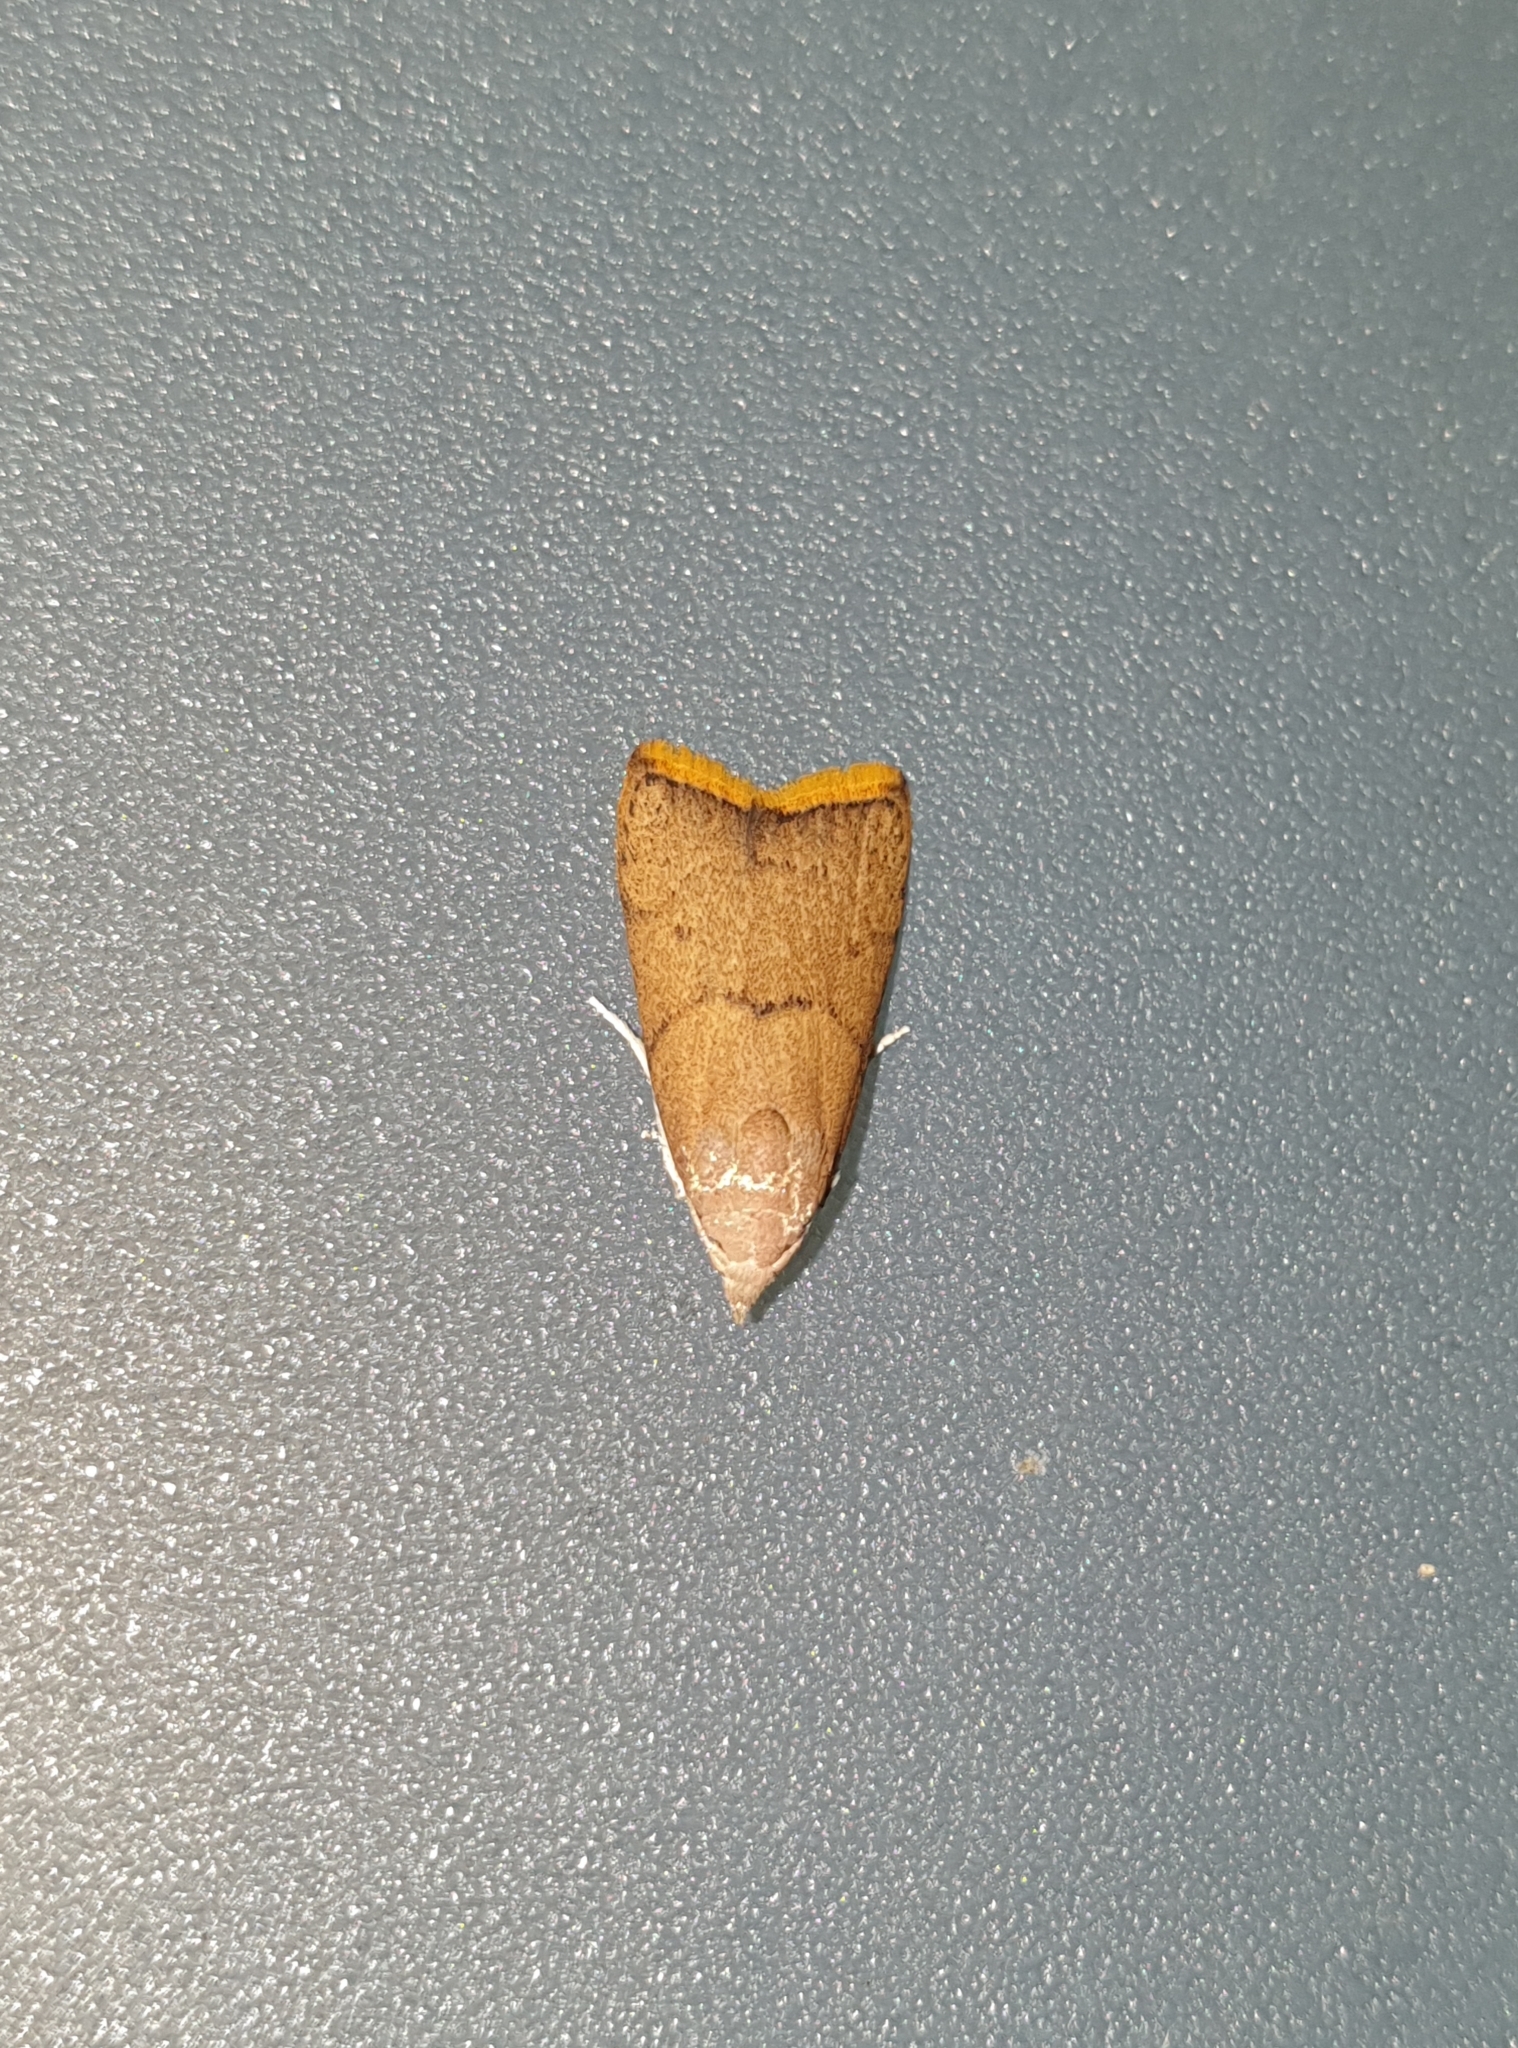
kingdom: Animalia
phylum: Arthropoda
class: Insecta
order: Lepidoptera
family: Pyralidae
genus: Doloessa
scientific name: Doloessa ochrociliella
